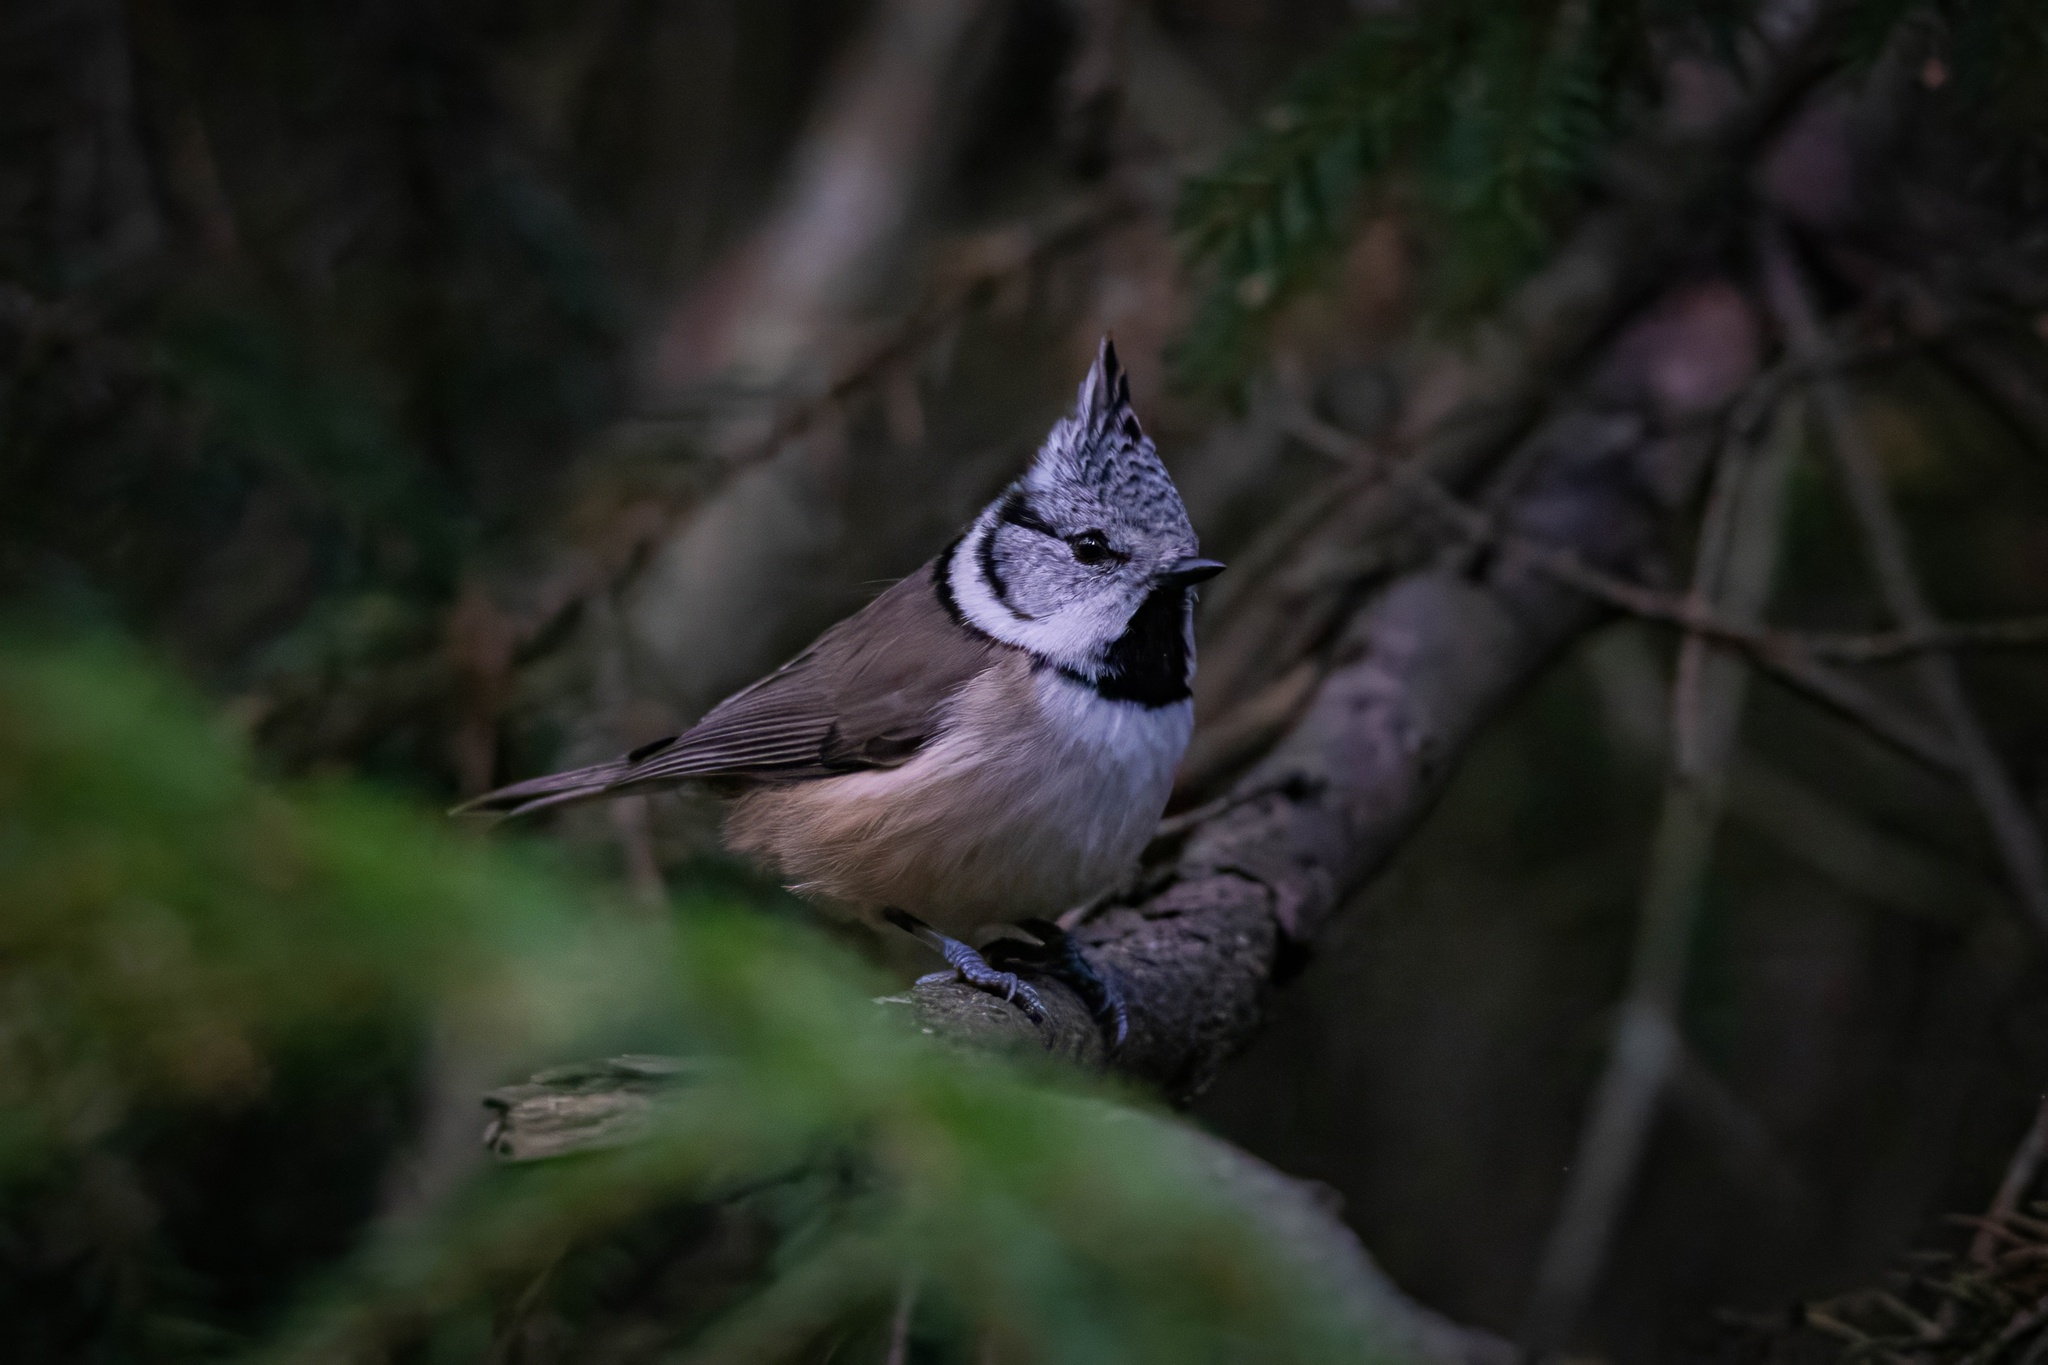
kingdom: Animalia
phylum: Chordata
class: Aves
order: Passeriformes
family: Paridae
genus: Lophophanes
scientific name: Lophophanes cristatus
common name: European crested tit
